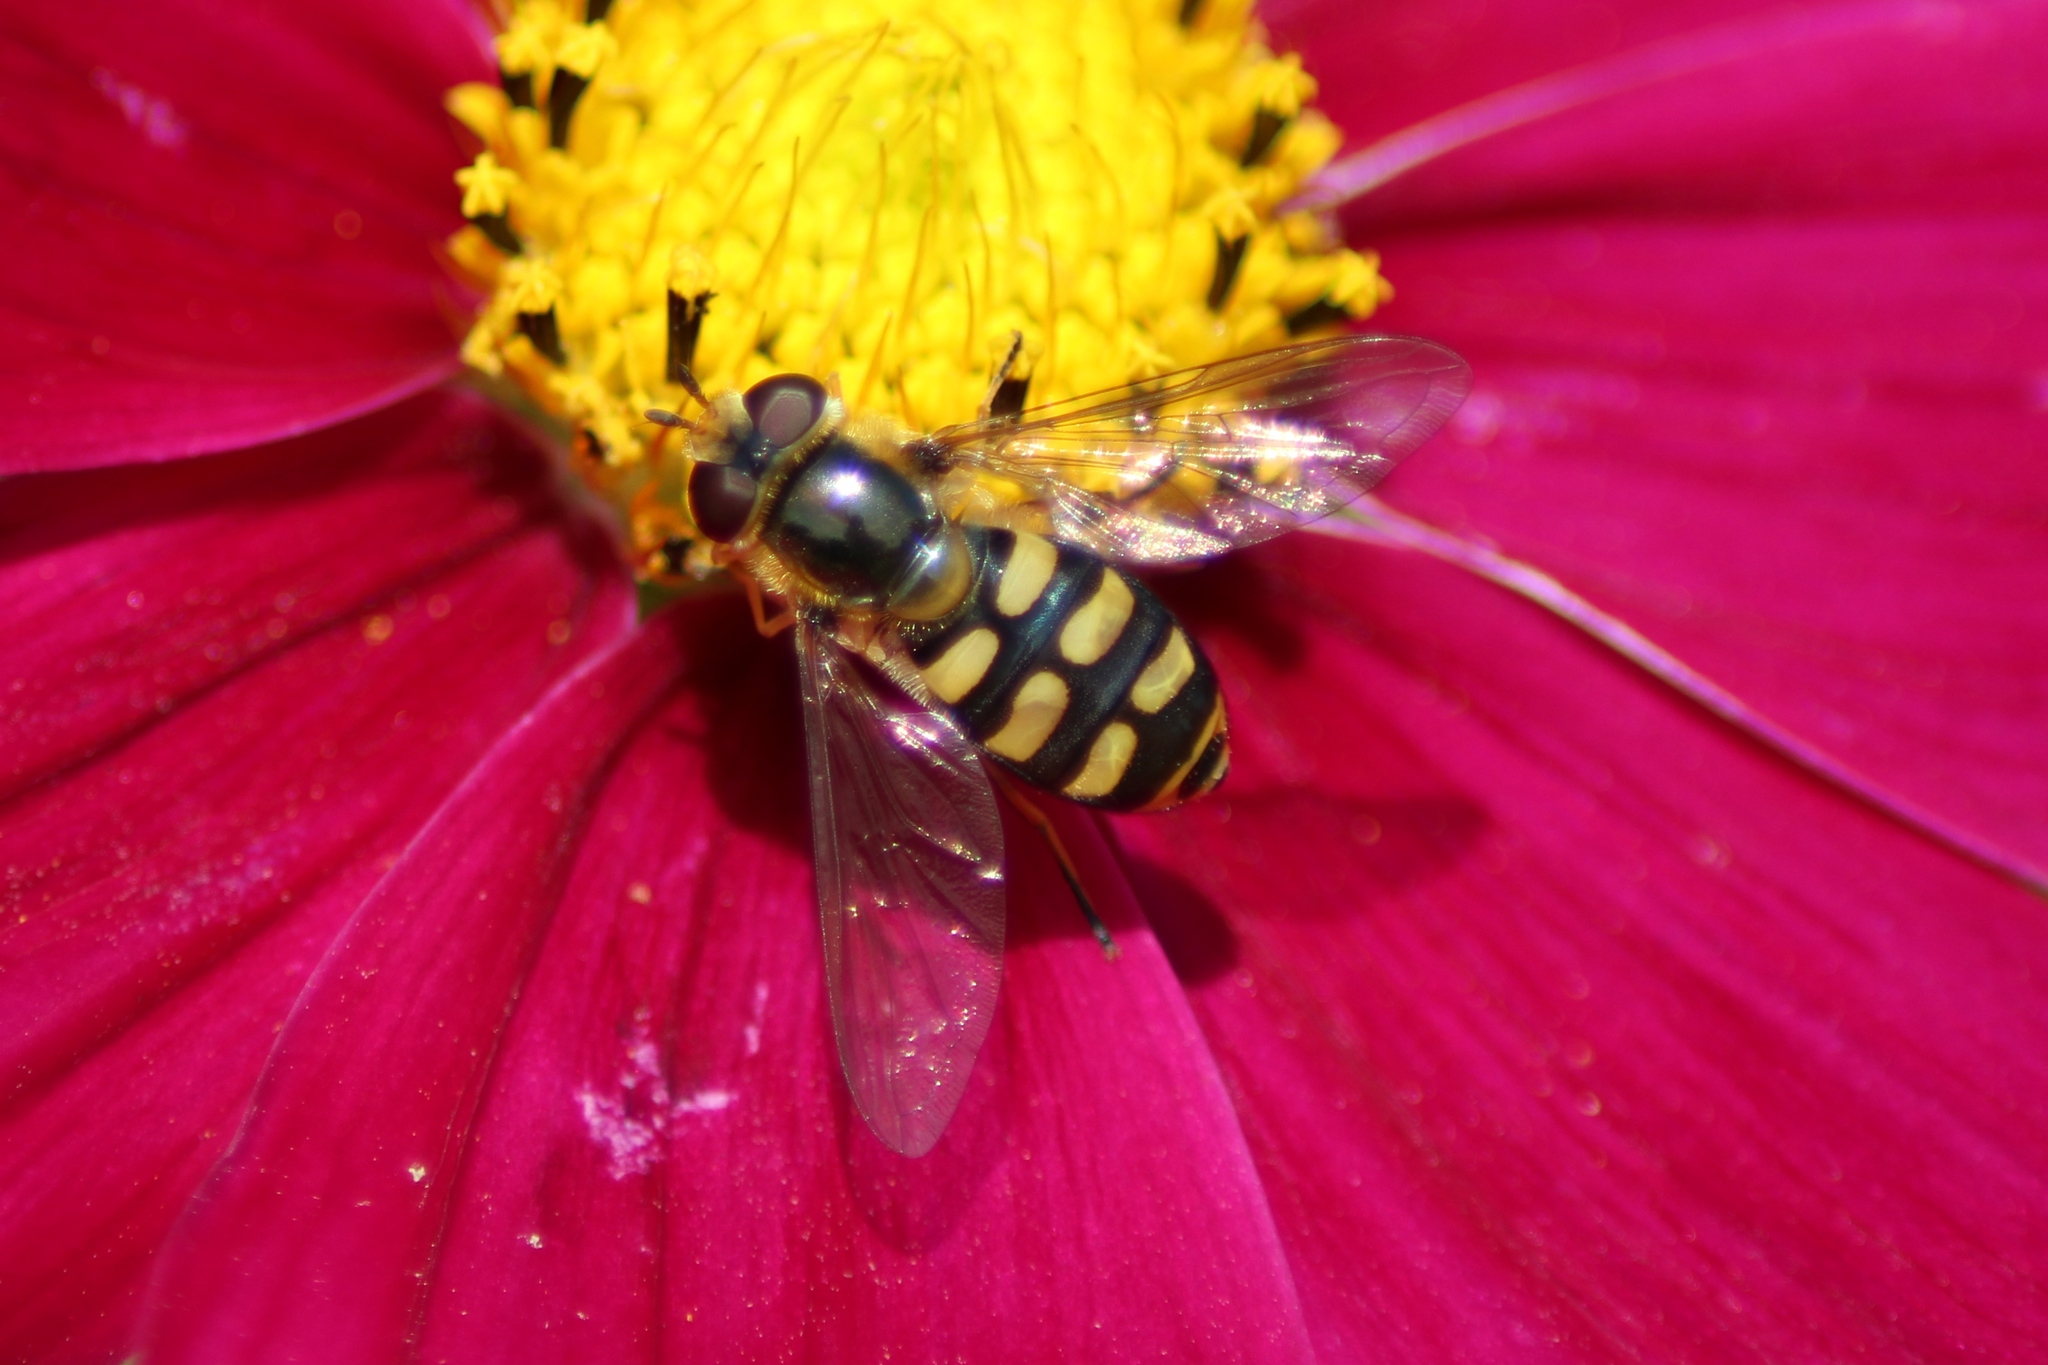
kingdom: Animalia
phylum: Arthropoda
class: Insecta
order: Diptera
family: Syrphidae
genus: Eupeodes
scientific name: Eupeodes luniger
